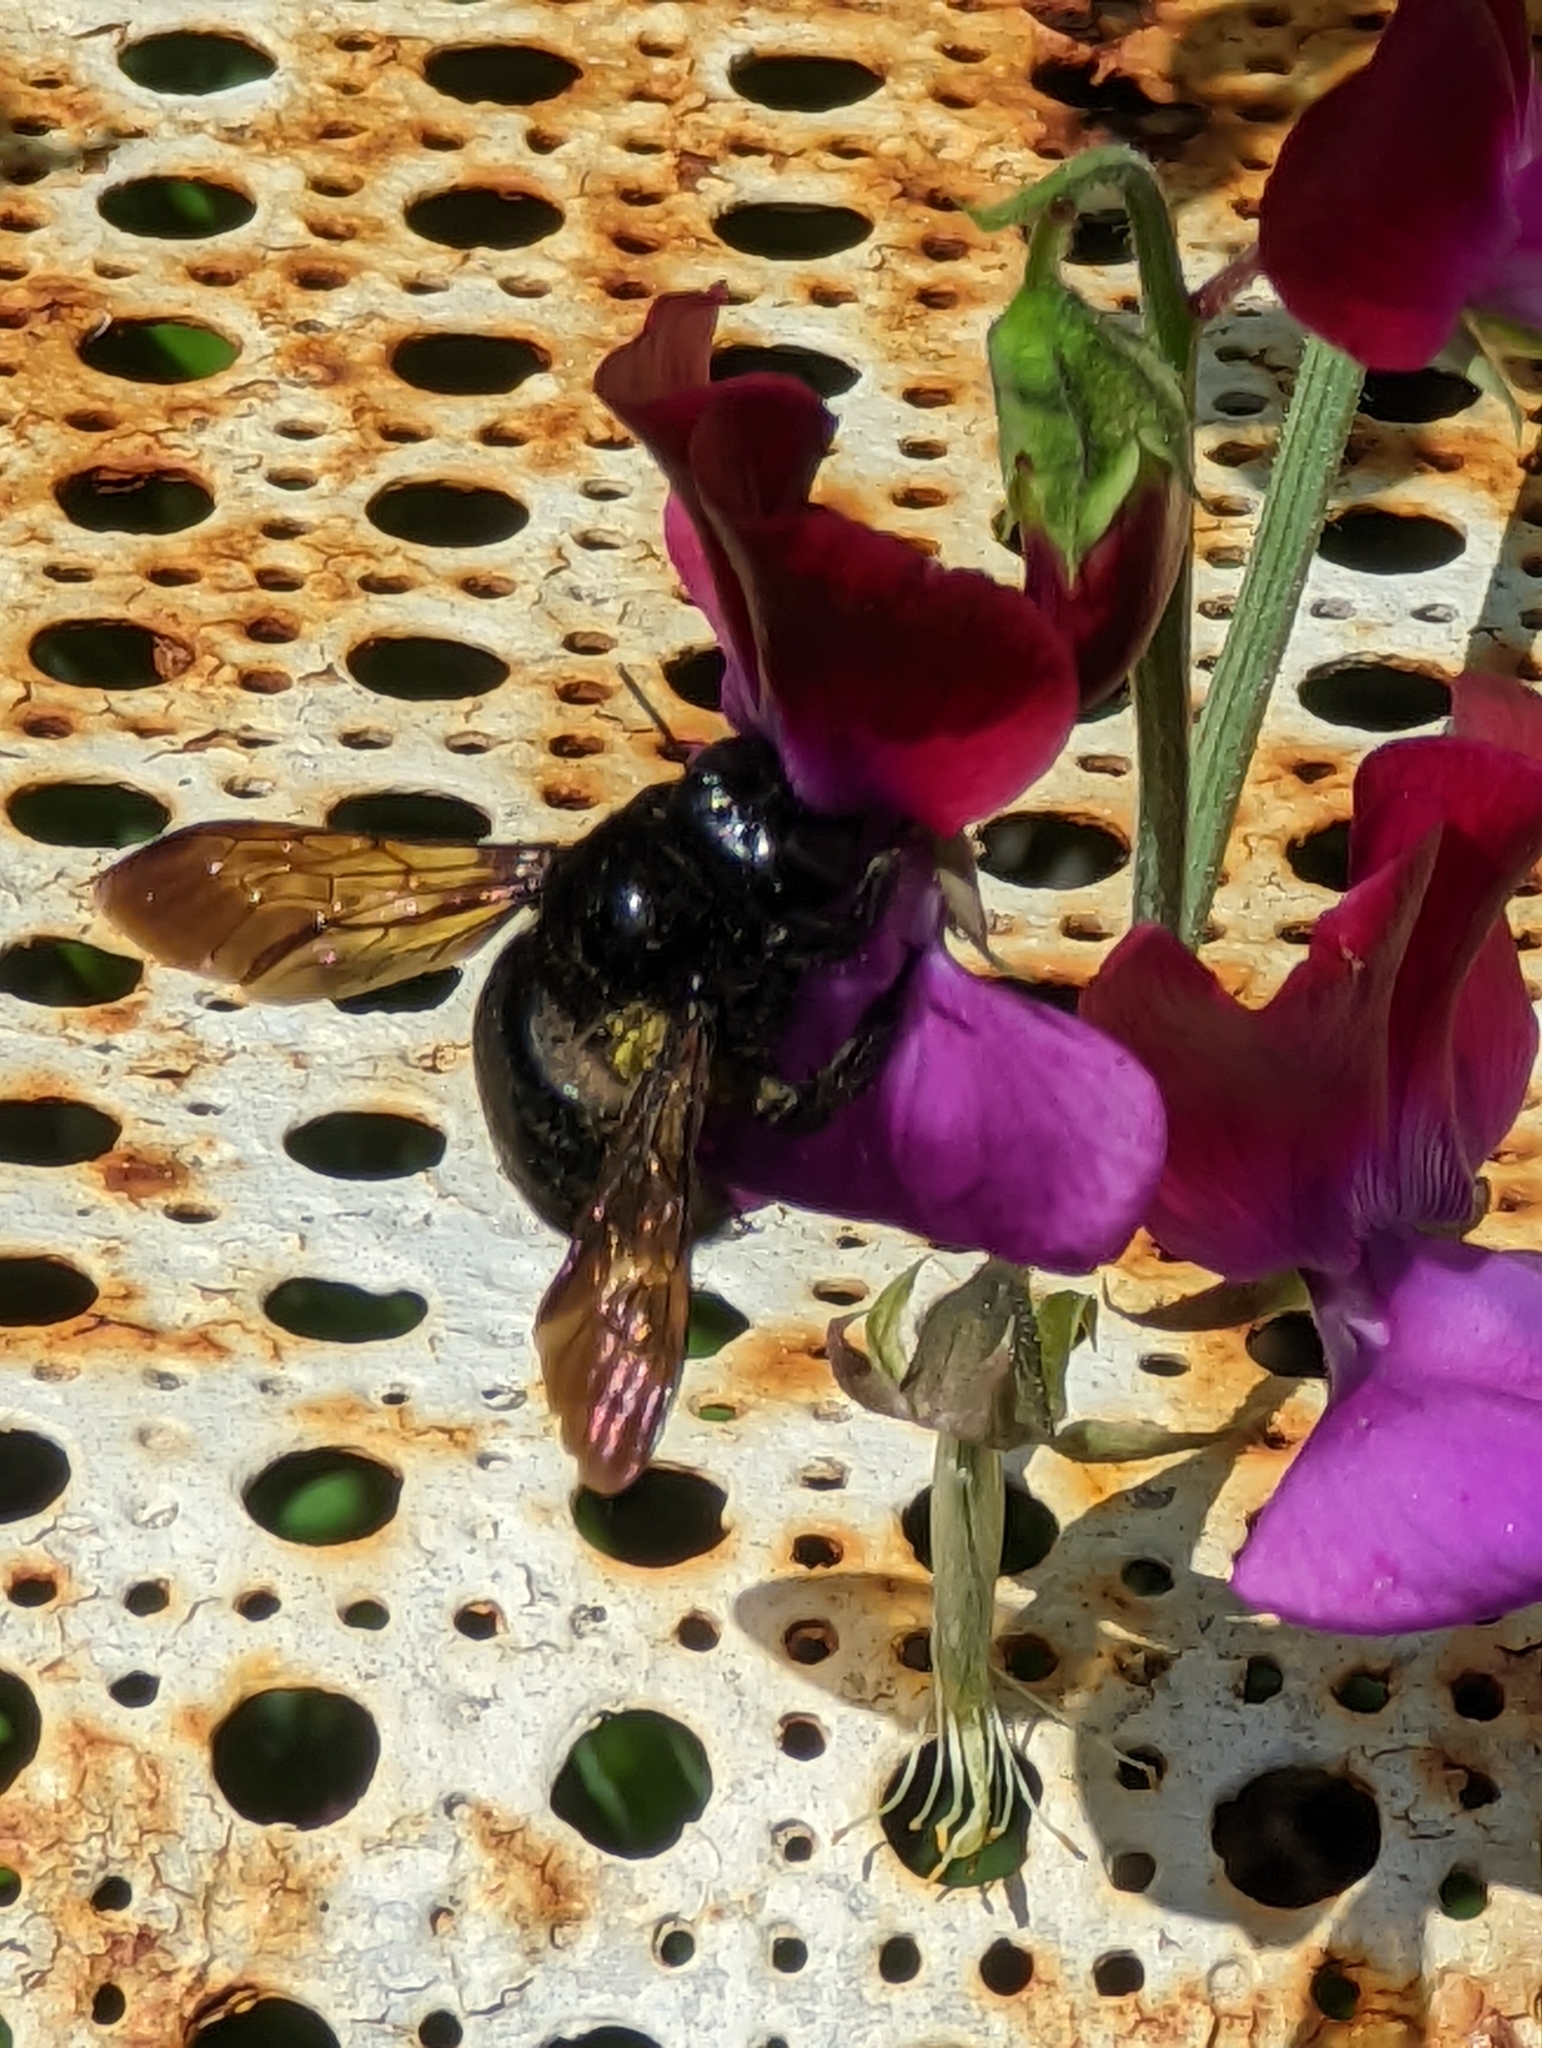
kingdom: Animalia
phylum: Arthropoda
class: Insecta
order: Hymenoptera
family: Apidae
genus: Xylocopa
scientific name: Xylocopa sonorina
